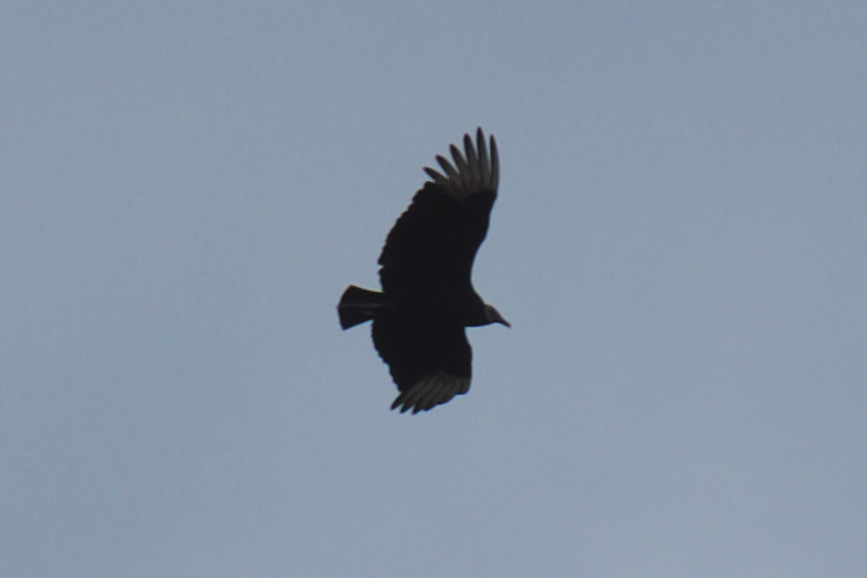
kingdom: Animalia
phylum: Chordata
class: Aves
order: Accipitriformes
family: Cathartidae
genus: Coragyps
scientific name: Coragyps atratus
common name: Black vulture
